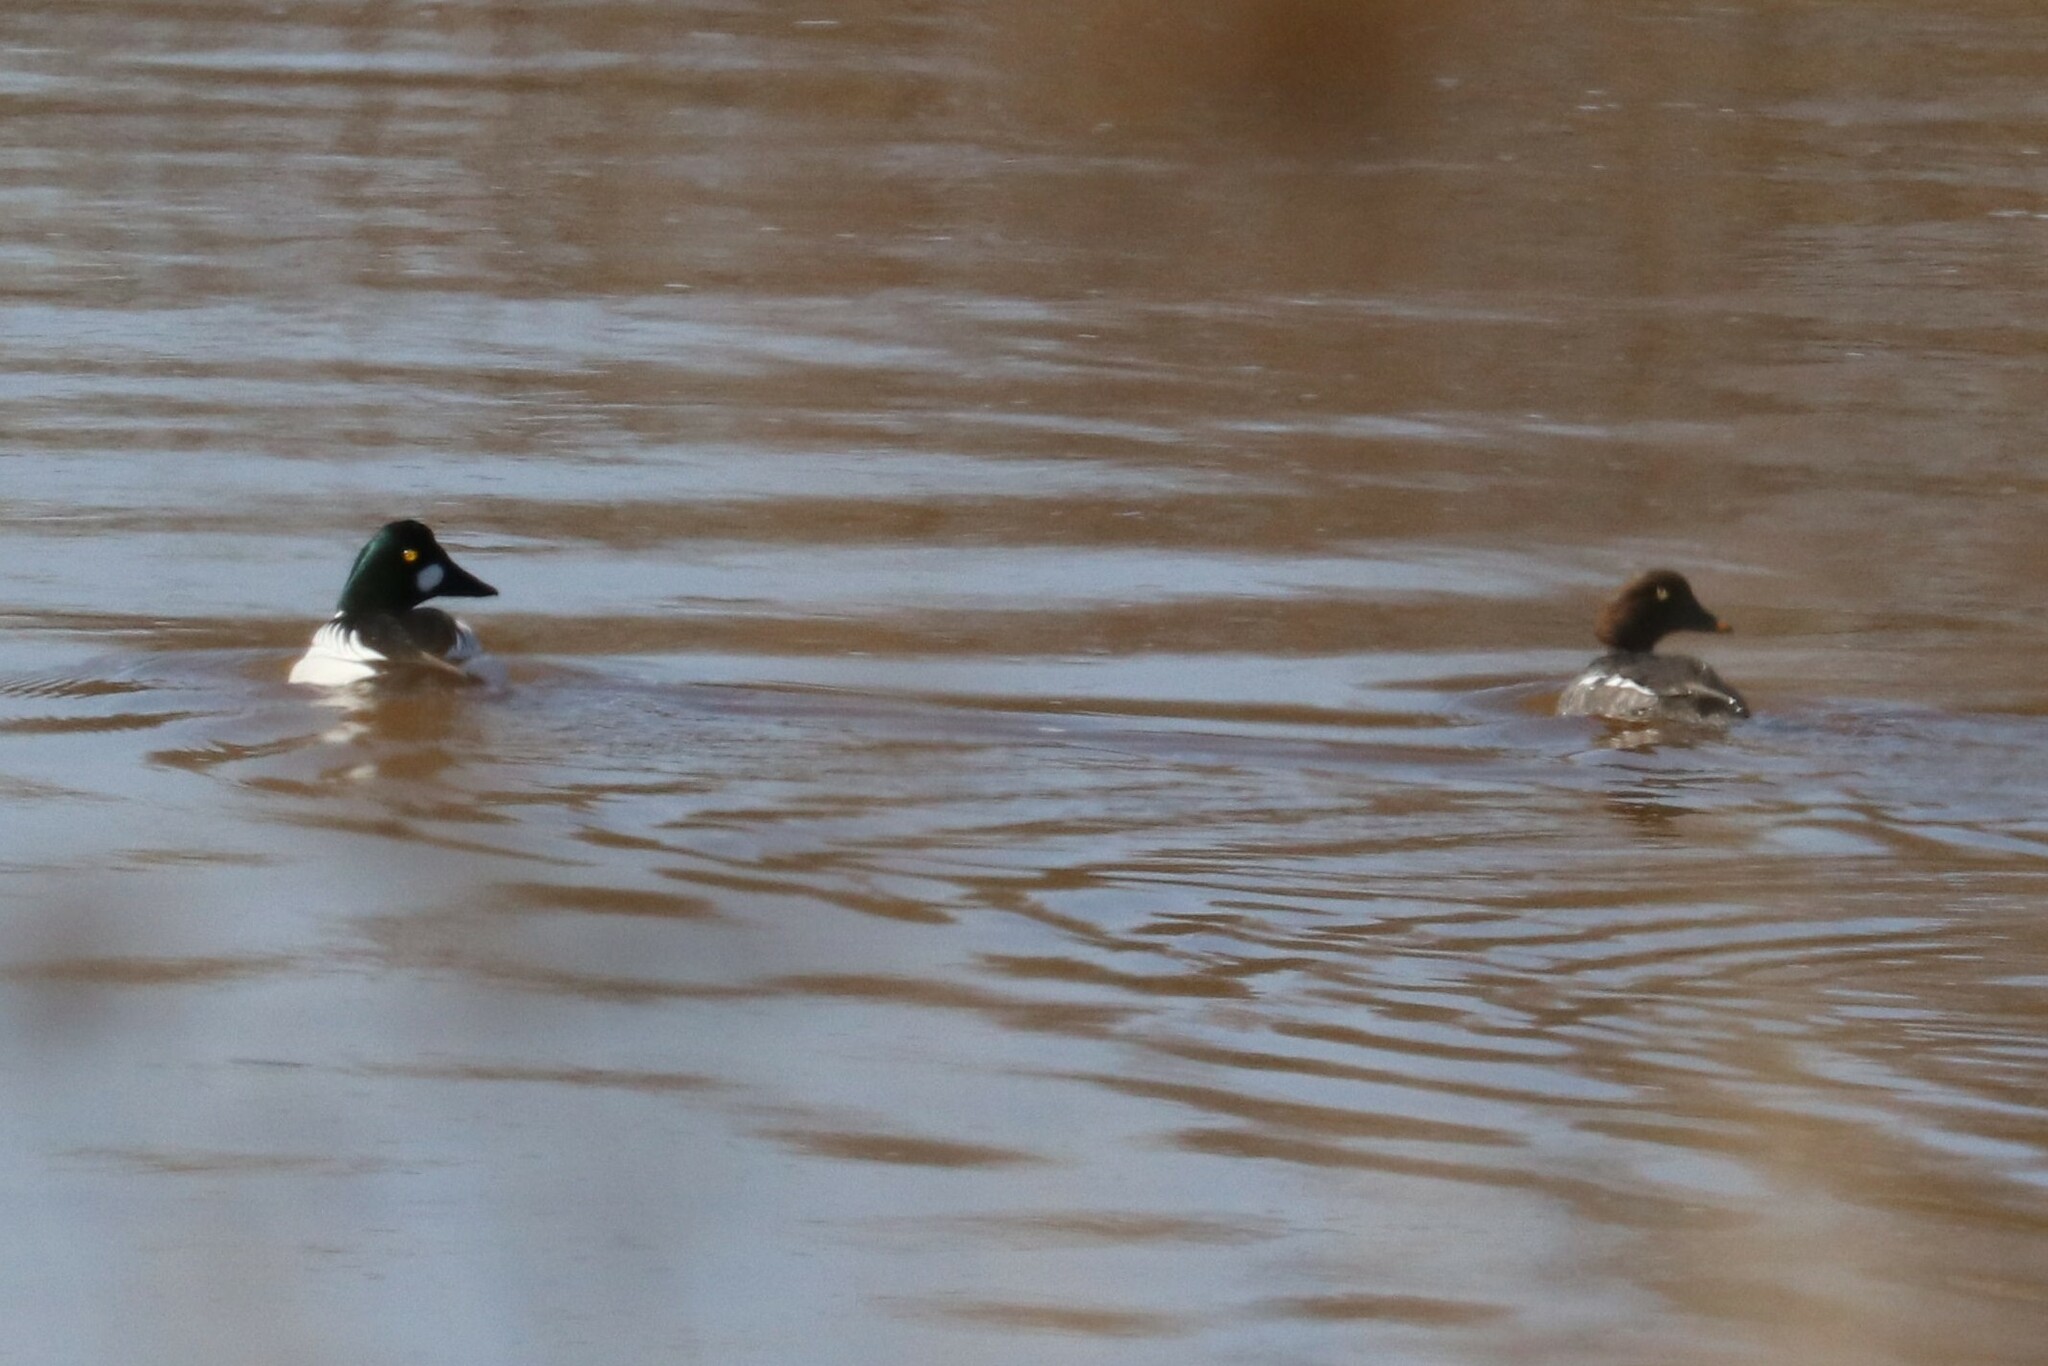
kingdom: Animalia
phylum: Chordata
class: Aves
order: Anseriformes
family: Anatidae
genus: Bucephala
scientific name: Bucephala clangula
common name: Common goldeneye
